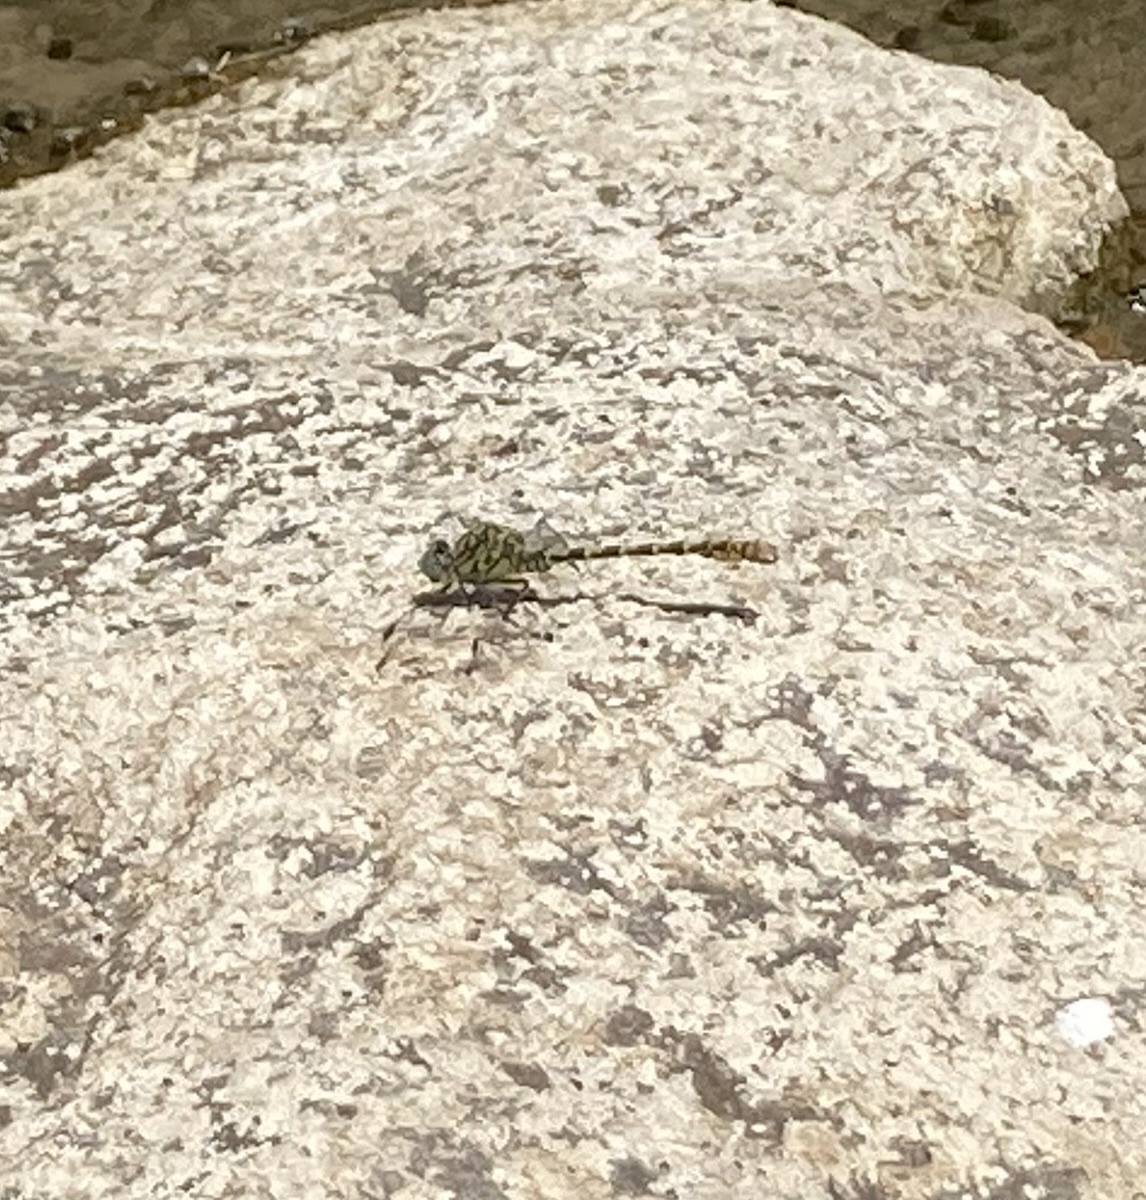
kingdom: Animalia
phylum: Arthropoda
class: Insecta
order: Odonata
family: Gomphidae
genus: Onychogomphus
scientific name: Onychogomphus forcipatus
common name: Small pincertail
